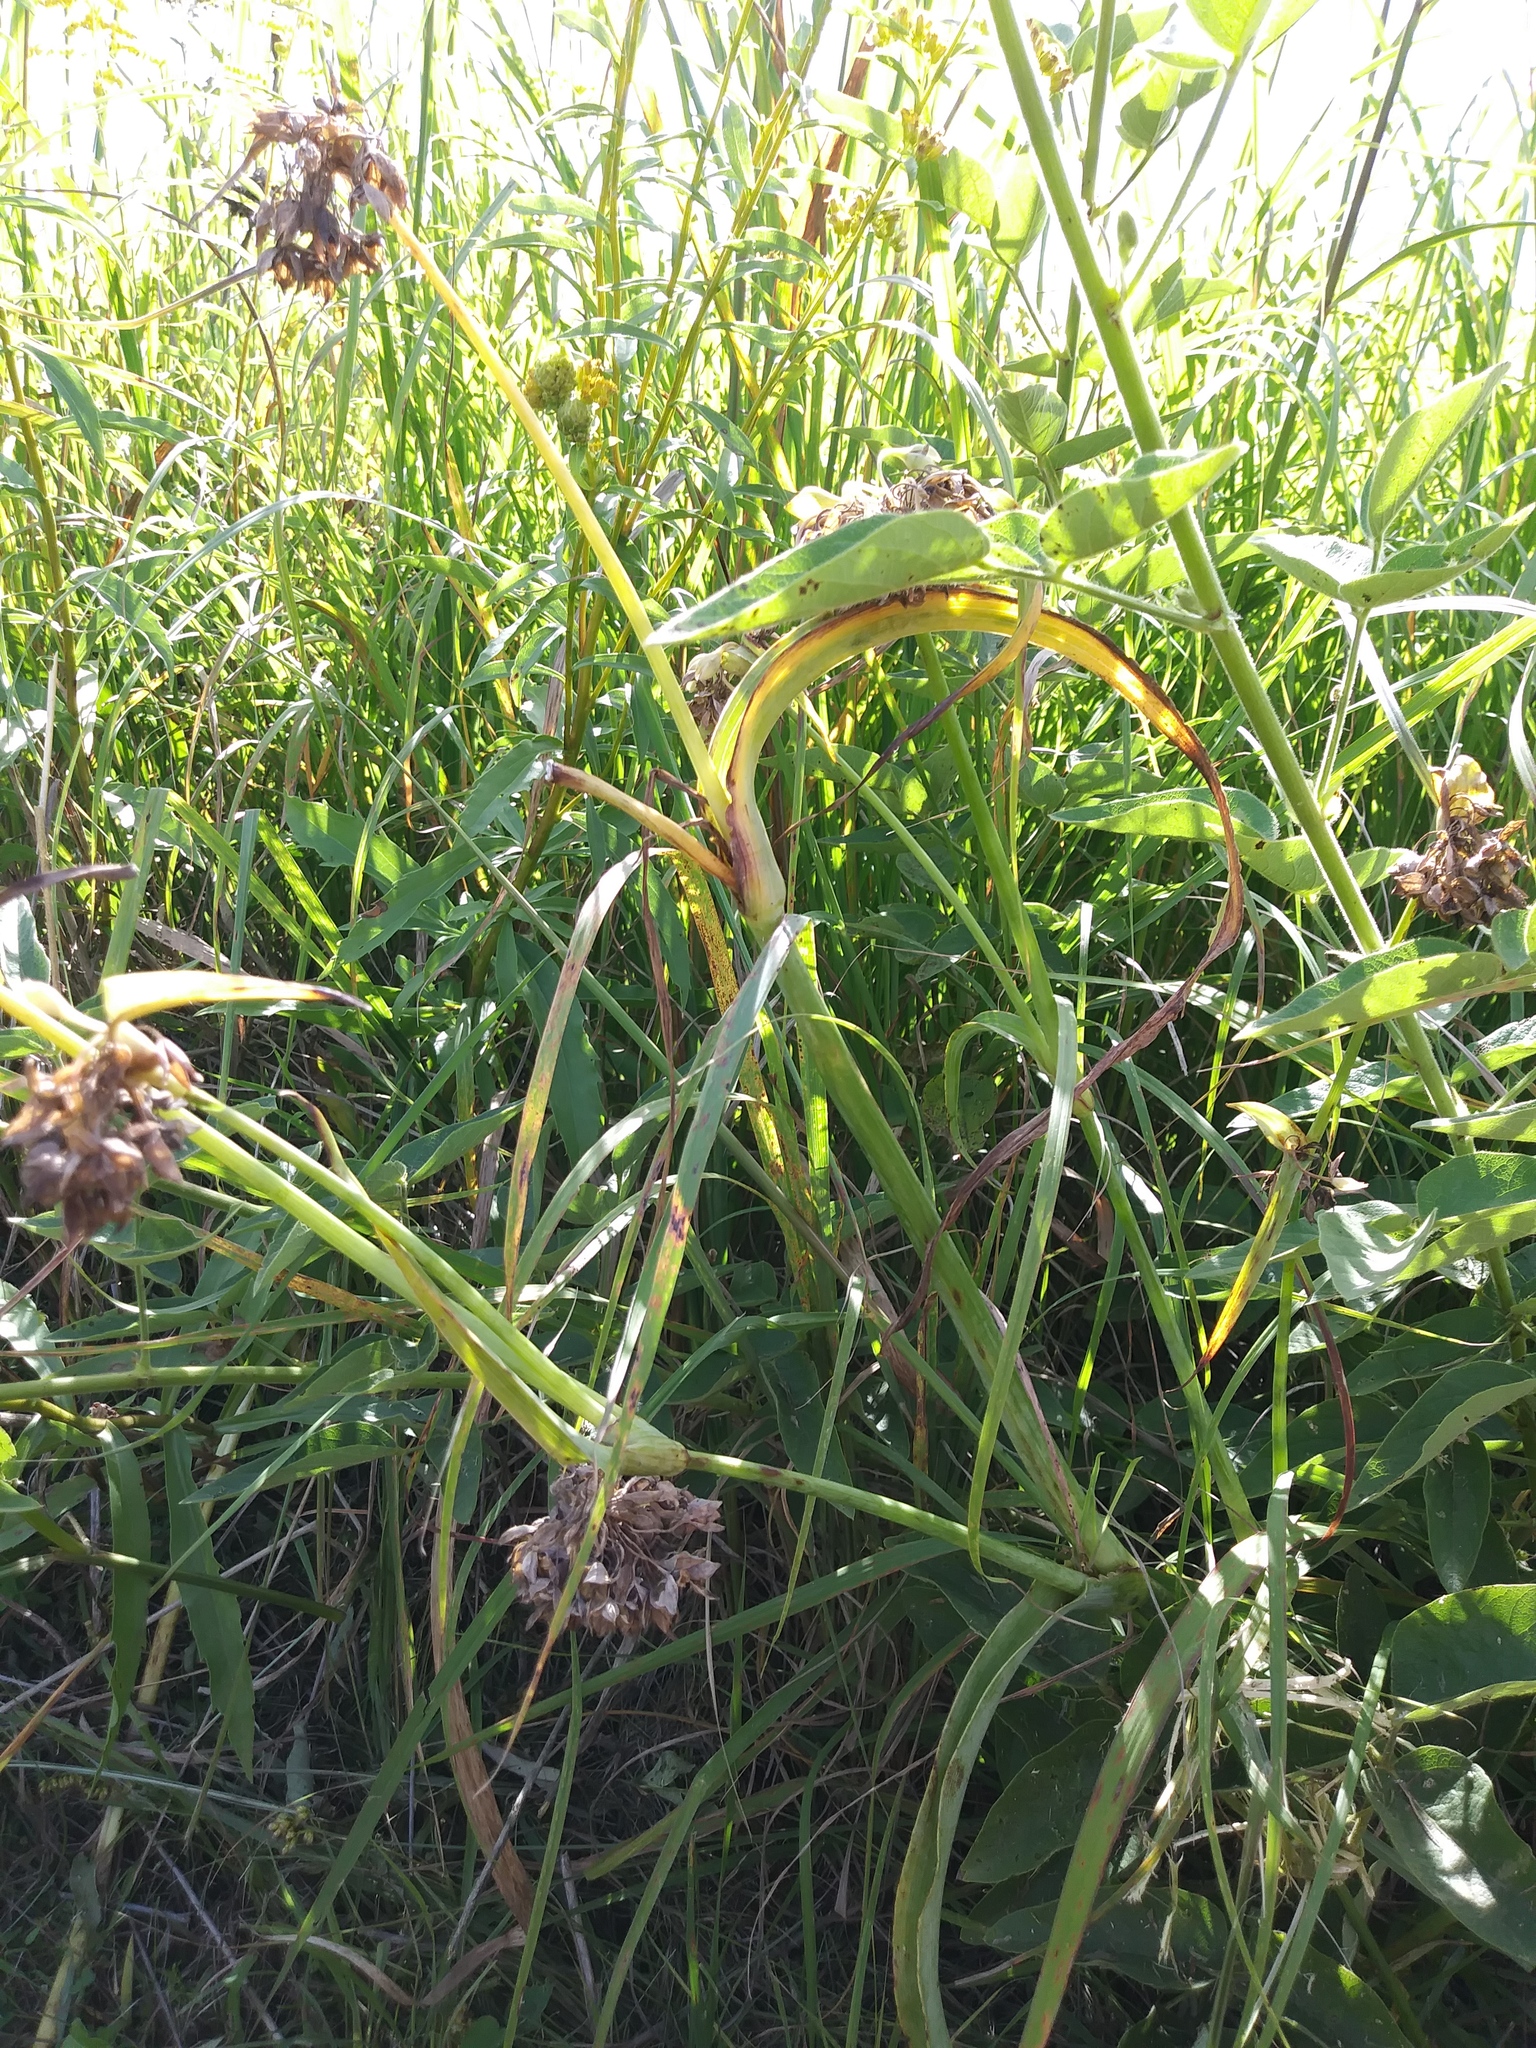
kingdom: Plantae
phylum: Tracheophyta
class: Liliopsida
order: Commelinales
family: Commelinaceae
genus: Tradescantia
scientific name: Tradescantia ohiensis
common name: Ohio spiderwort
